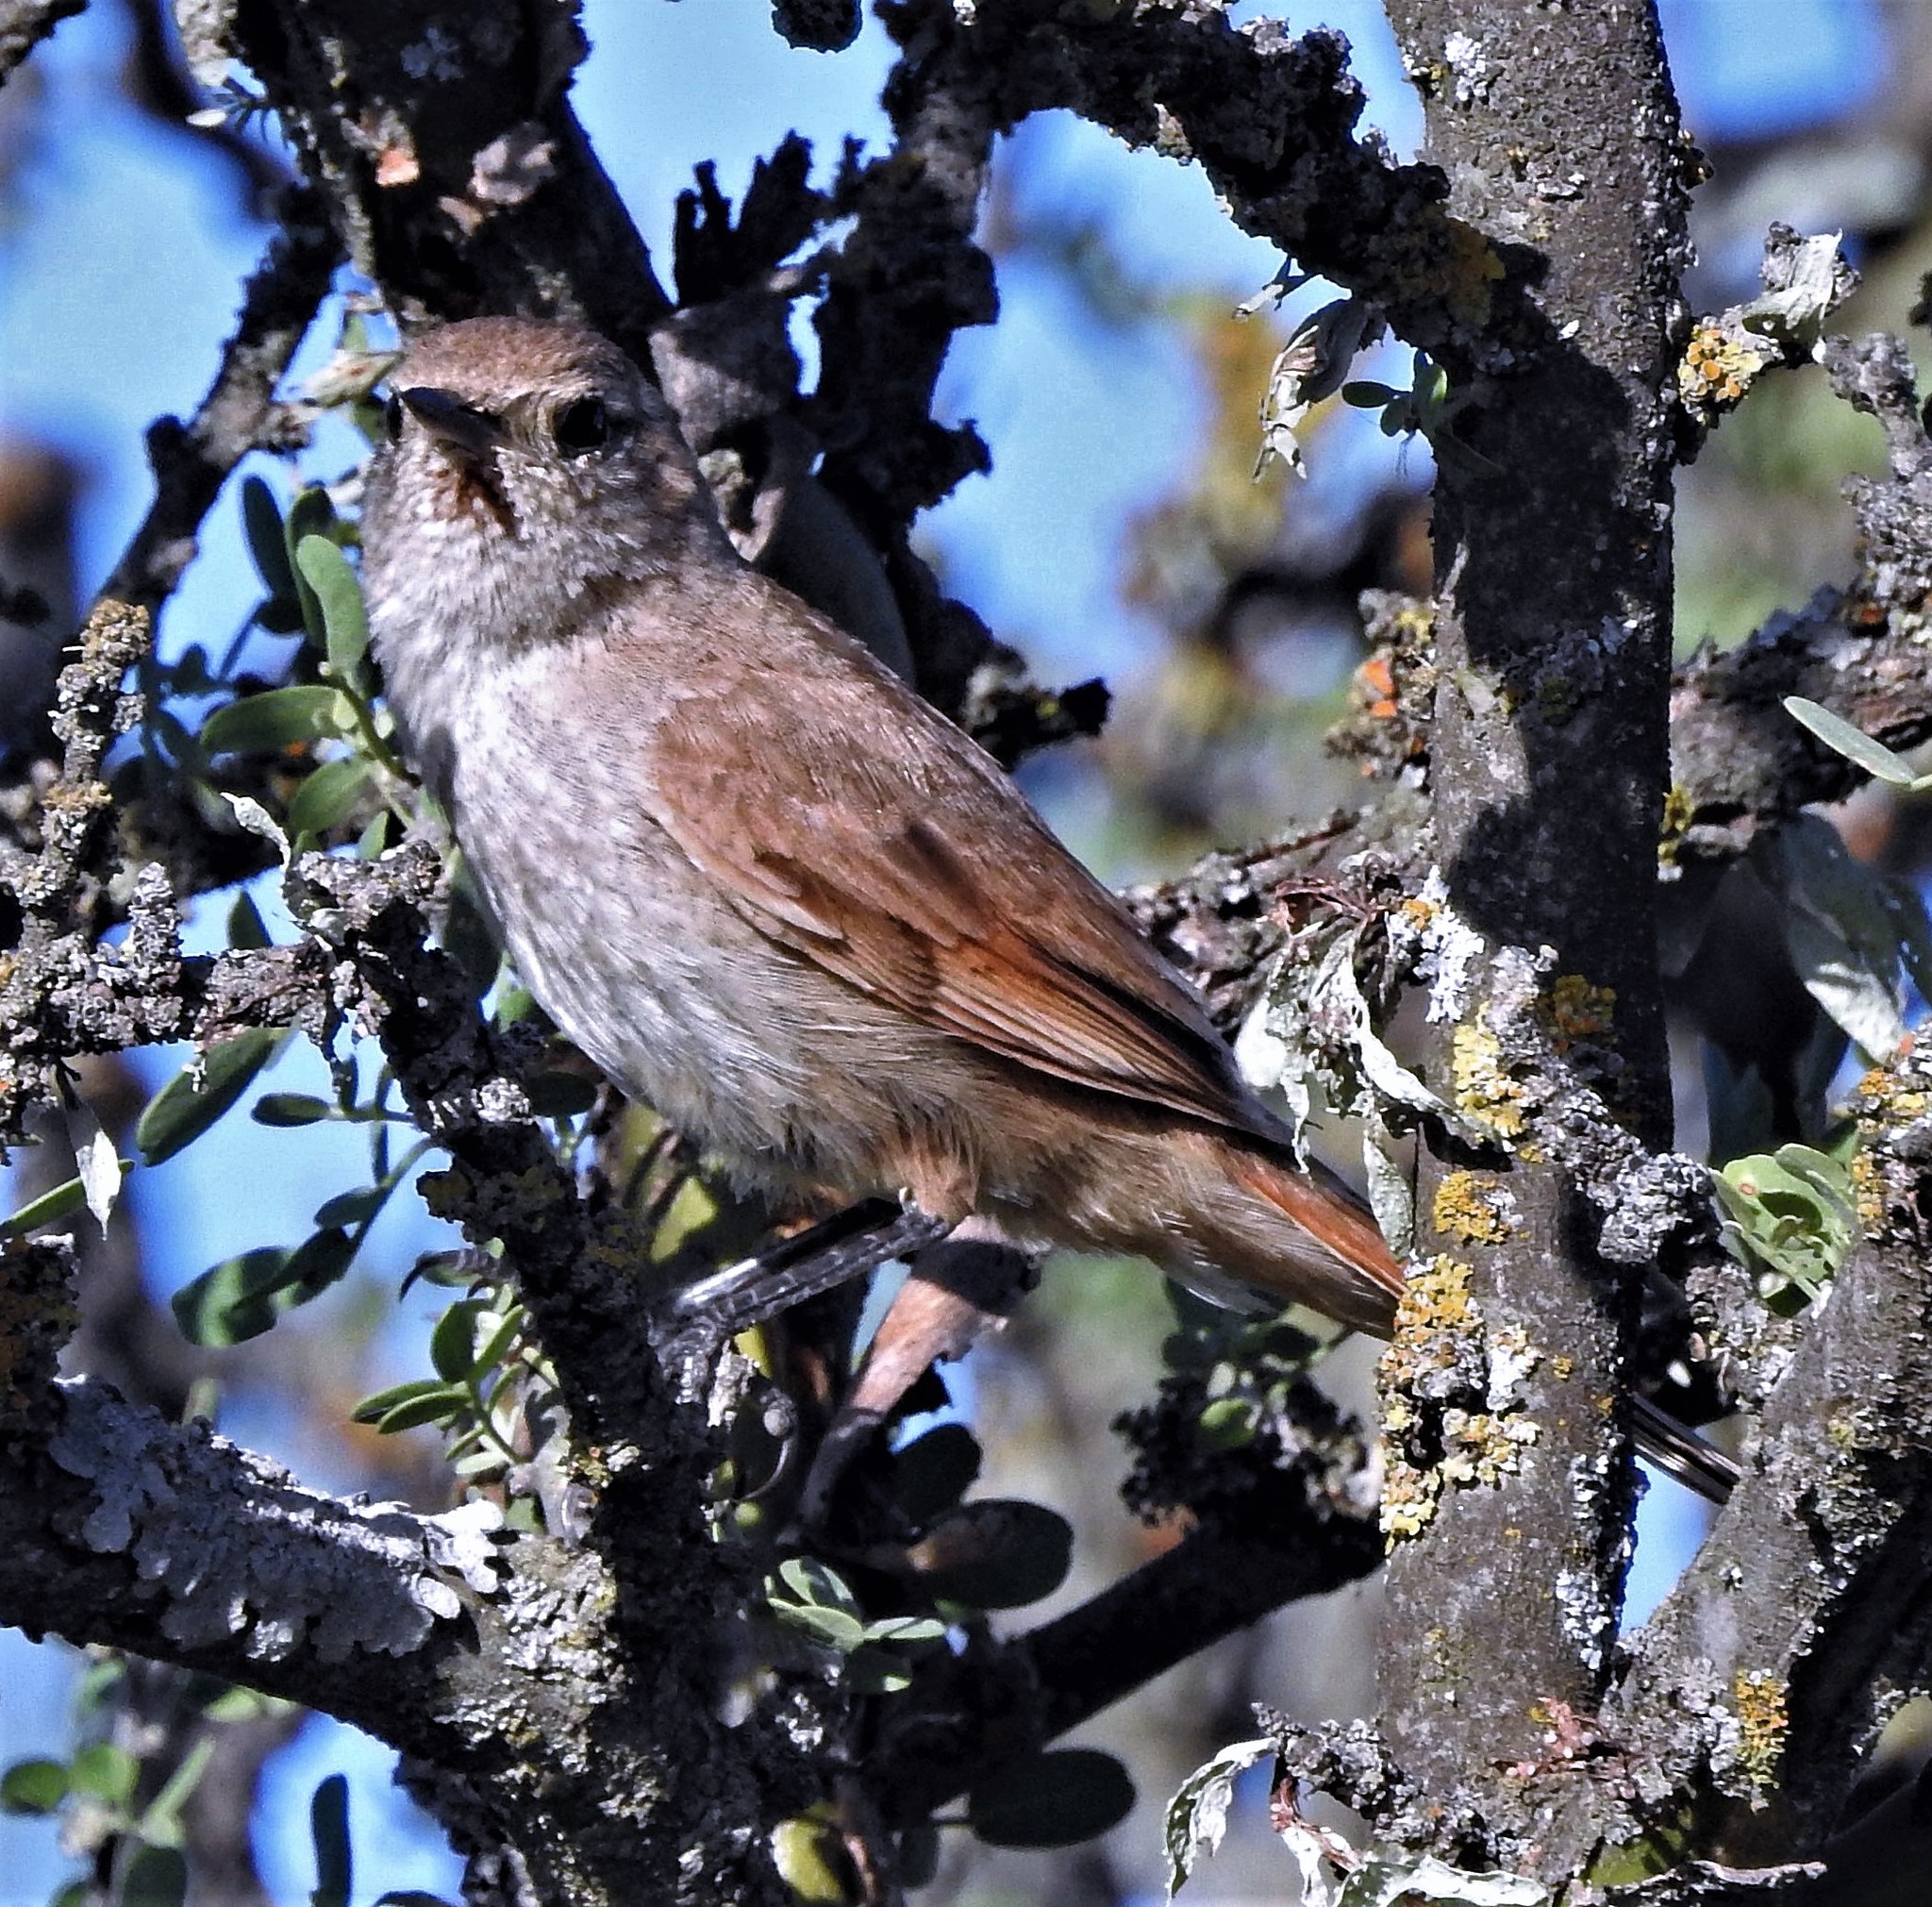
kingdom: Animalia
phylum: Chordata
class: Aves
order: Passeriformes
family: Furnariidae
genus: Asthenes
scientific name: Asthenes baeri
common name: Short-billed canastero
